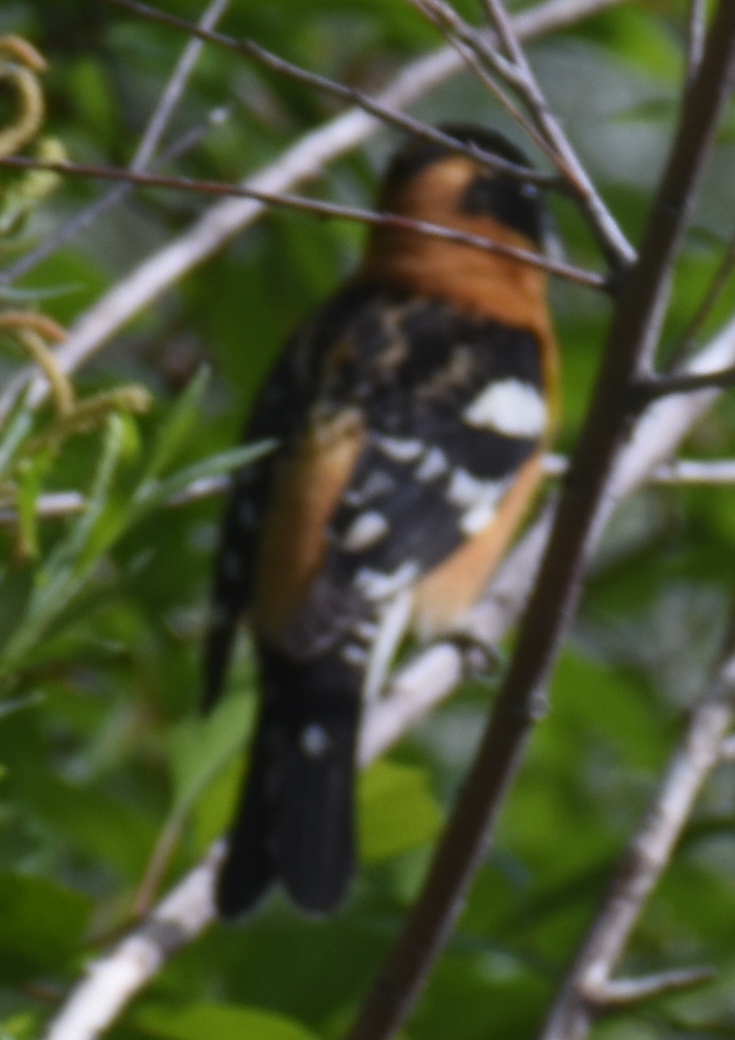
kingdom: Animalia
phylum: Chordata
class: Aves
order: Passeriformes
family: Cardinalidae
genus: Pheucticus
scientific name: Pheucticus melanocephalus
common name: Black-headed grosbeak
